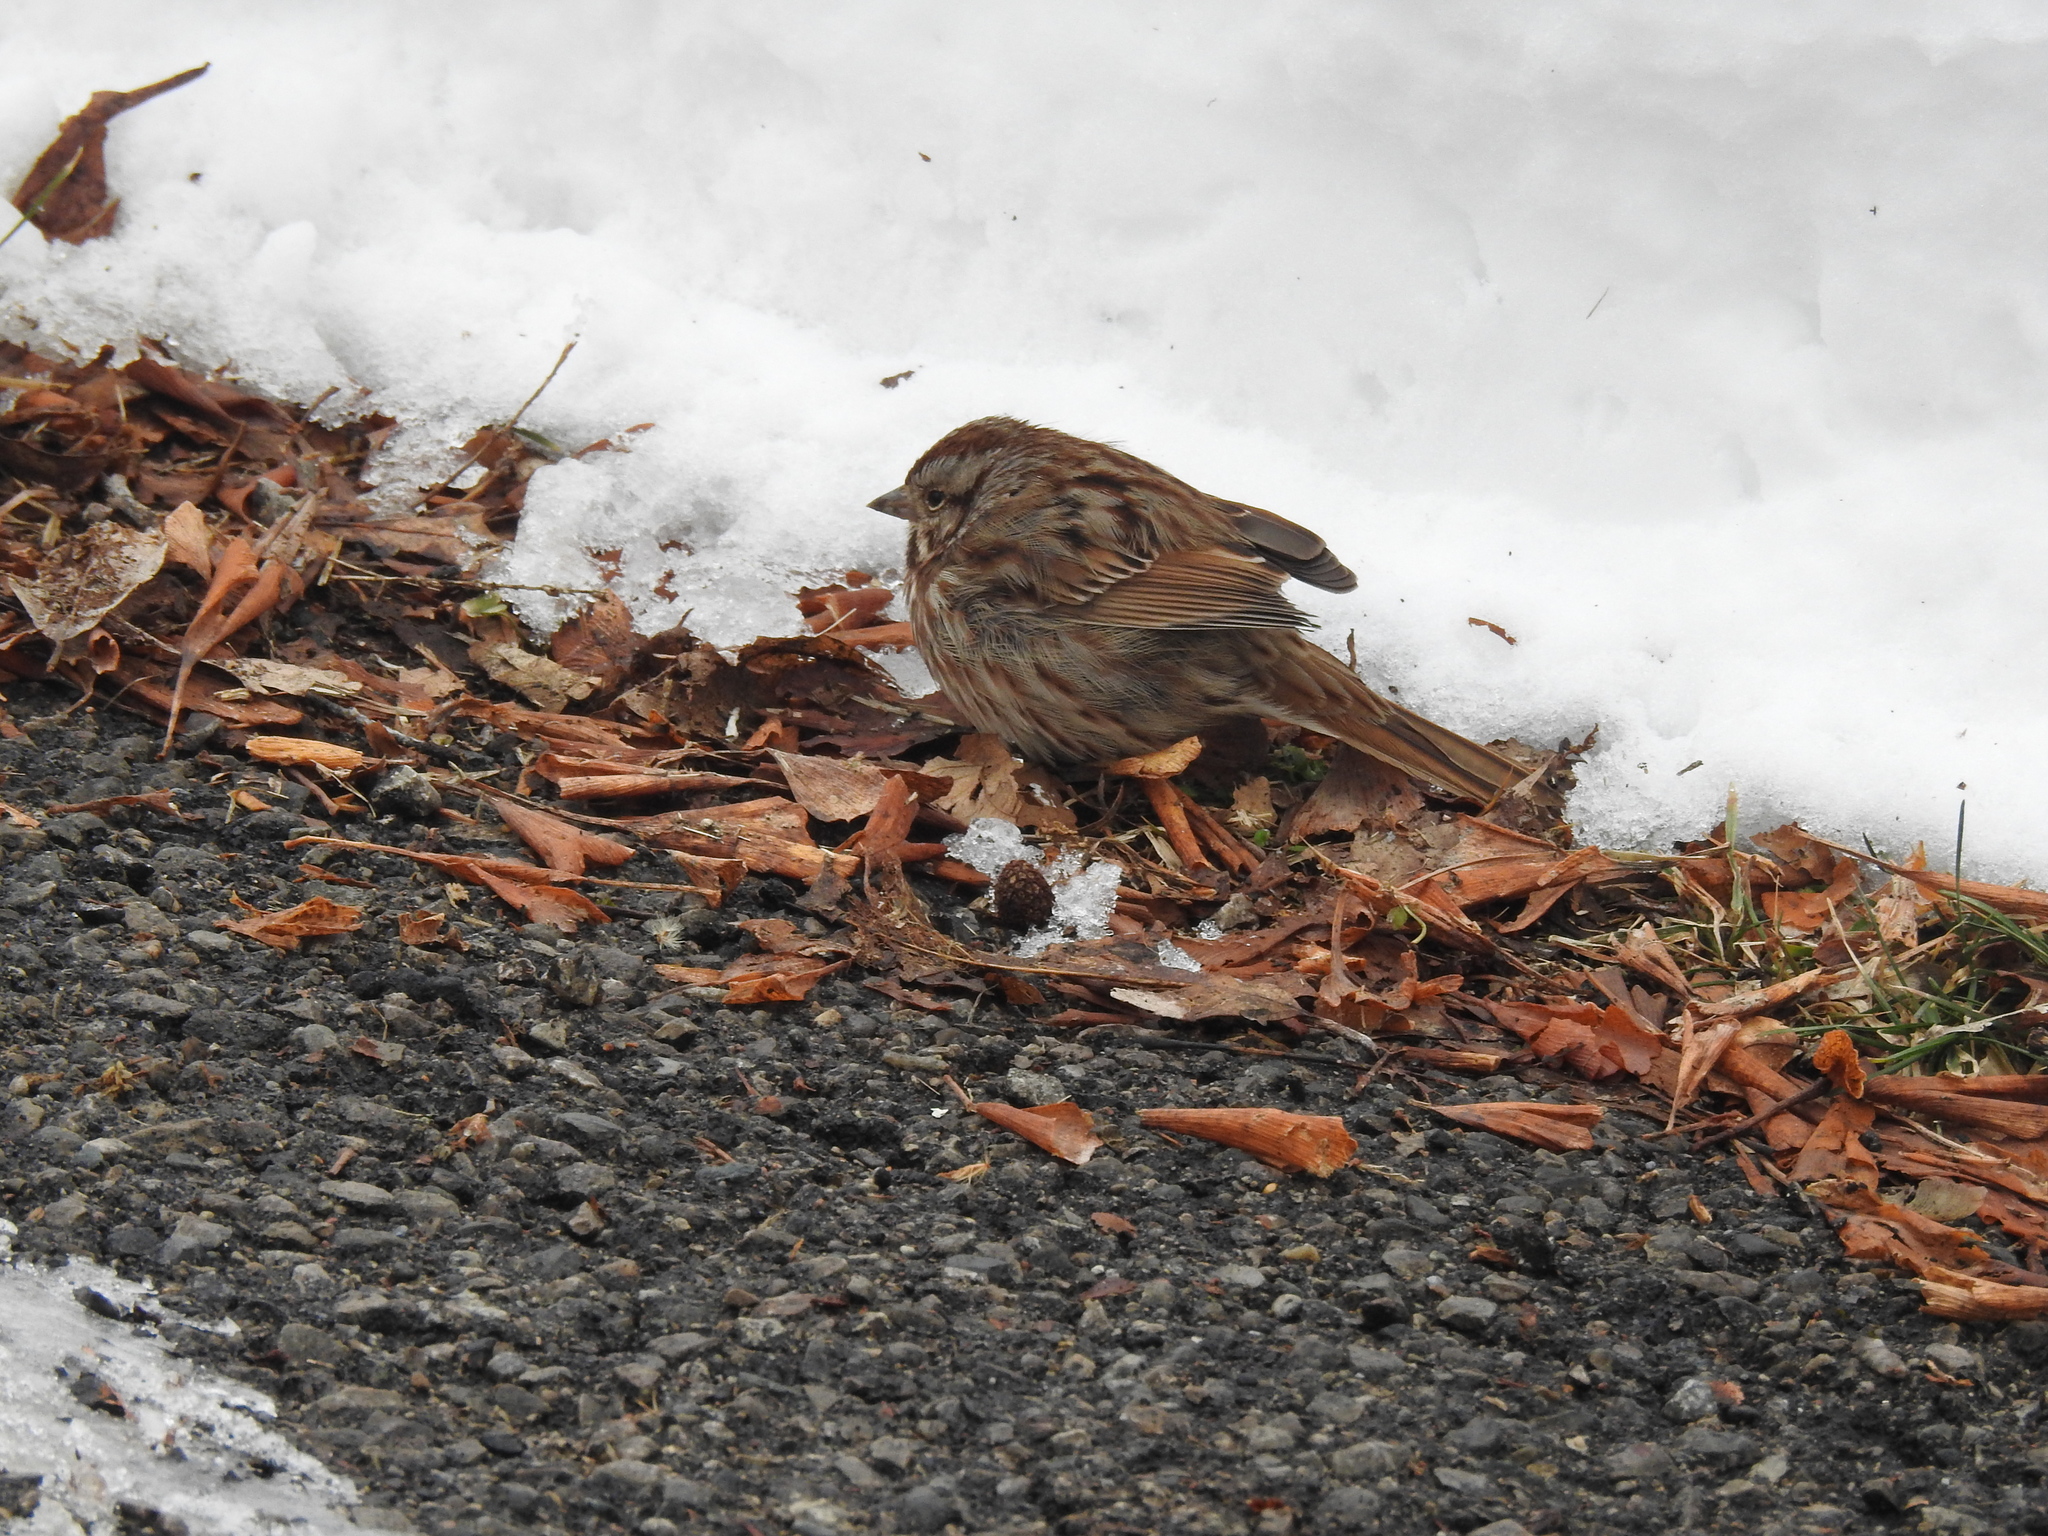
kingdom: Animalia
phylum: Chordata
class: Aves
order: Passeriformes
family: Passerellidae
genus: Melospiza
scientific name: Melospiza melodia
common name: Song sparrow
